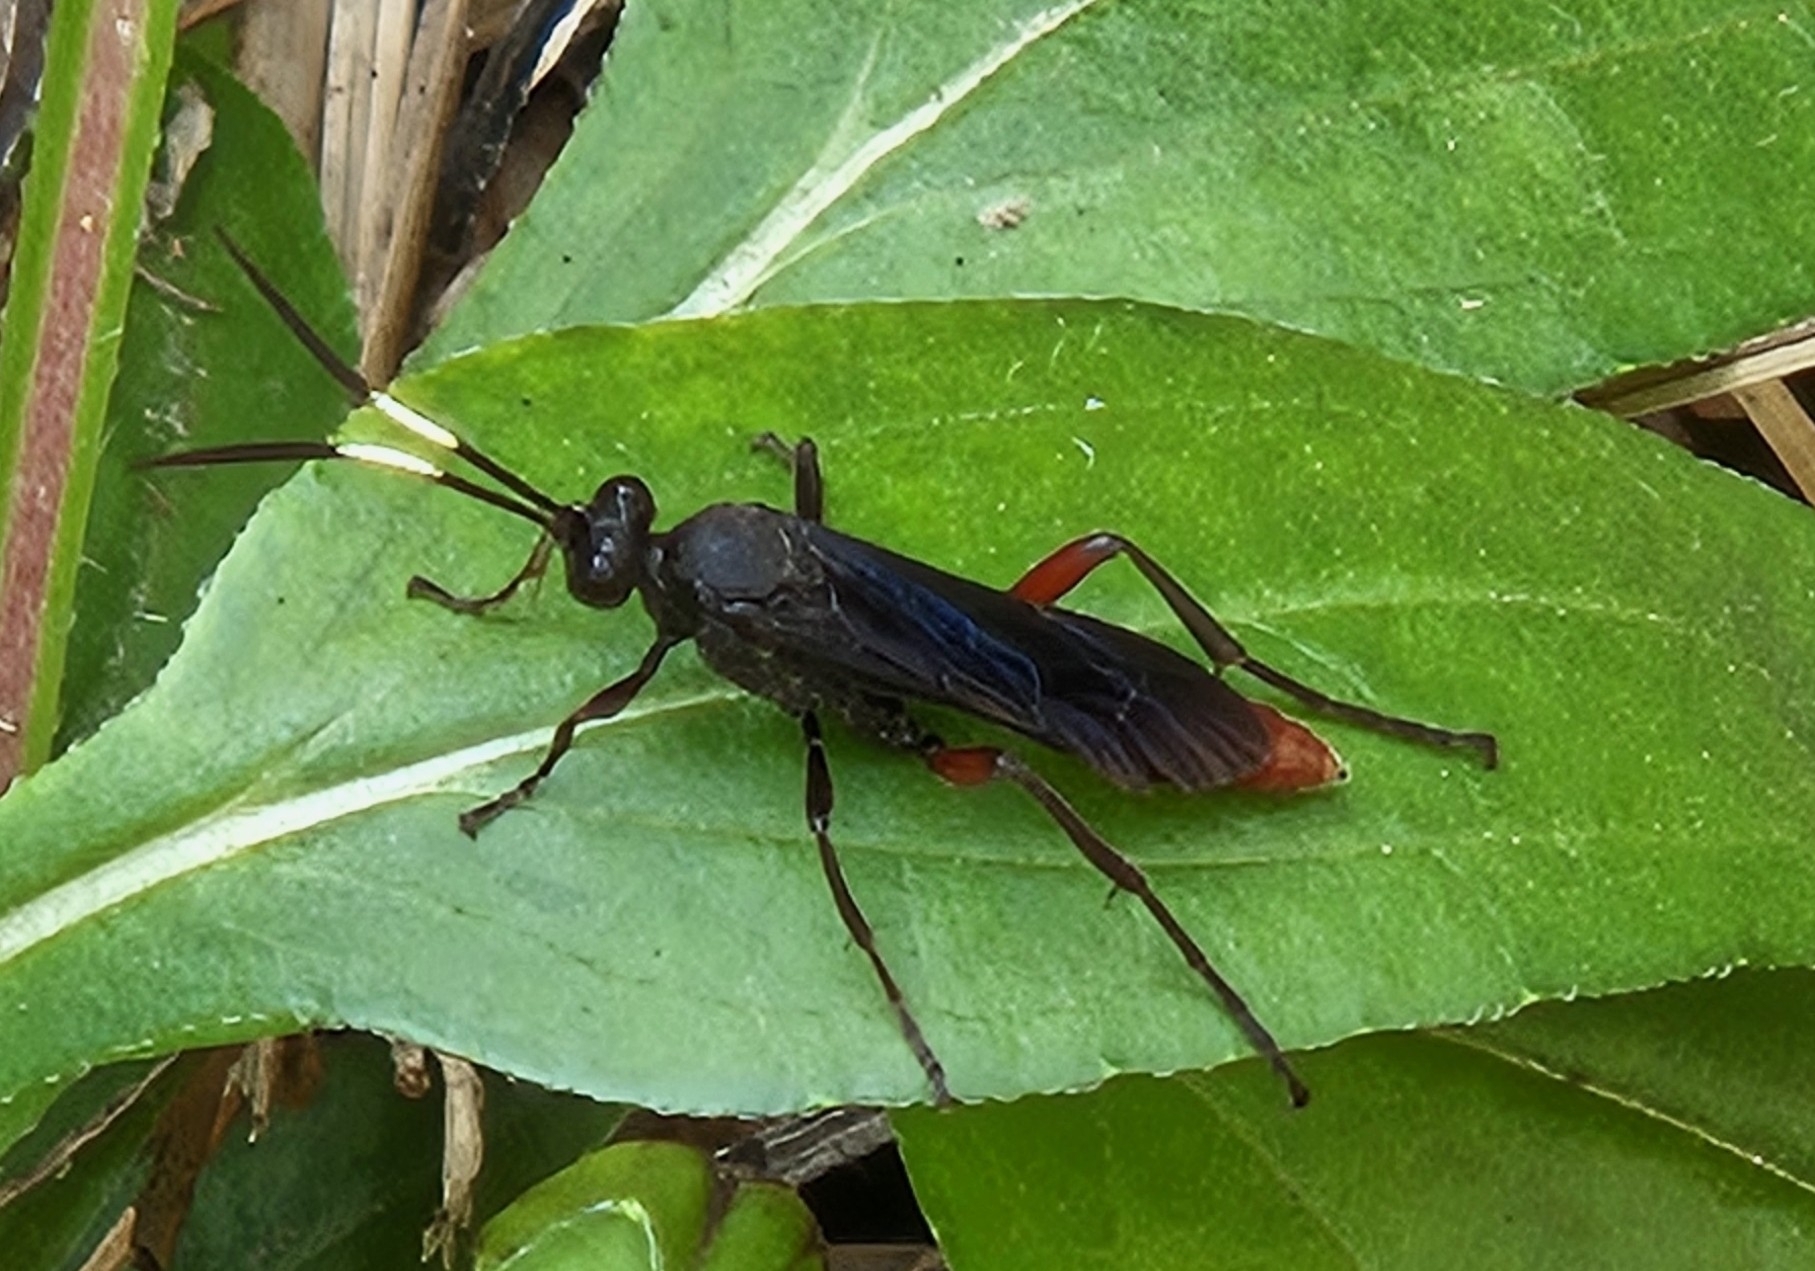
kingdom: Animalia
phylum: Arthropoda
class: Insecta
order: Hymenoptera
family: Ichneumonidae
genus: Limonethe
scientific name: Limonethe maurator
